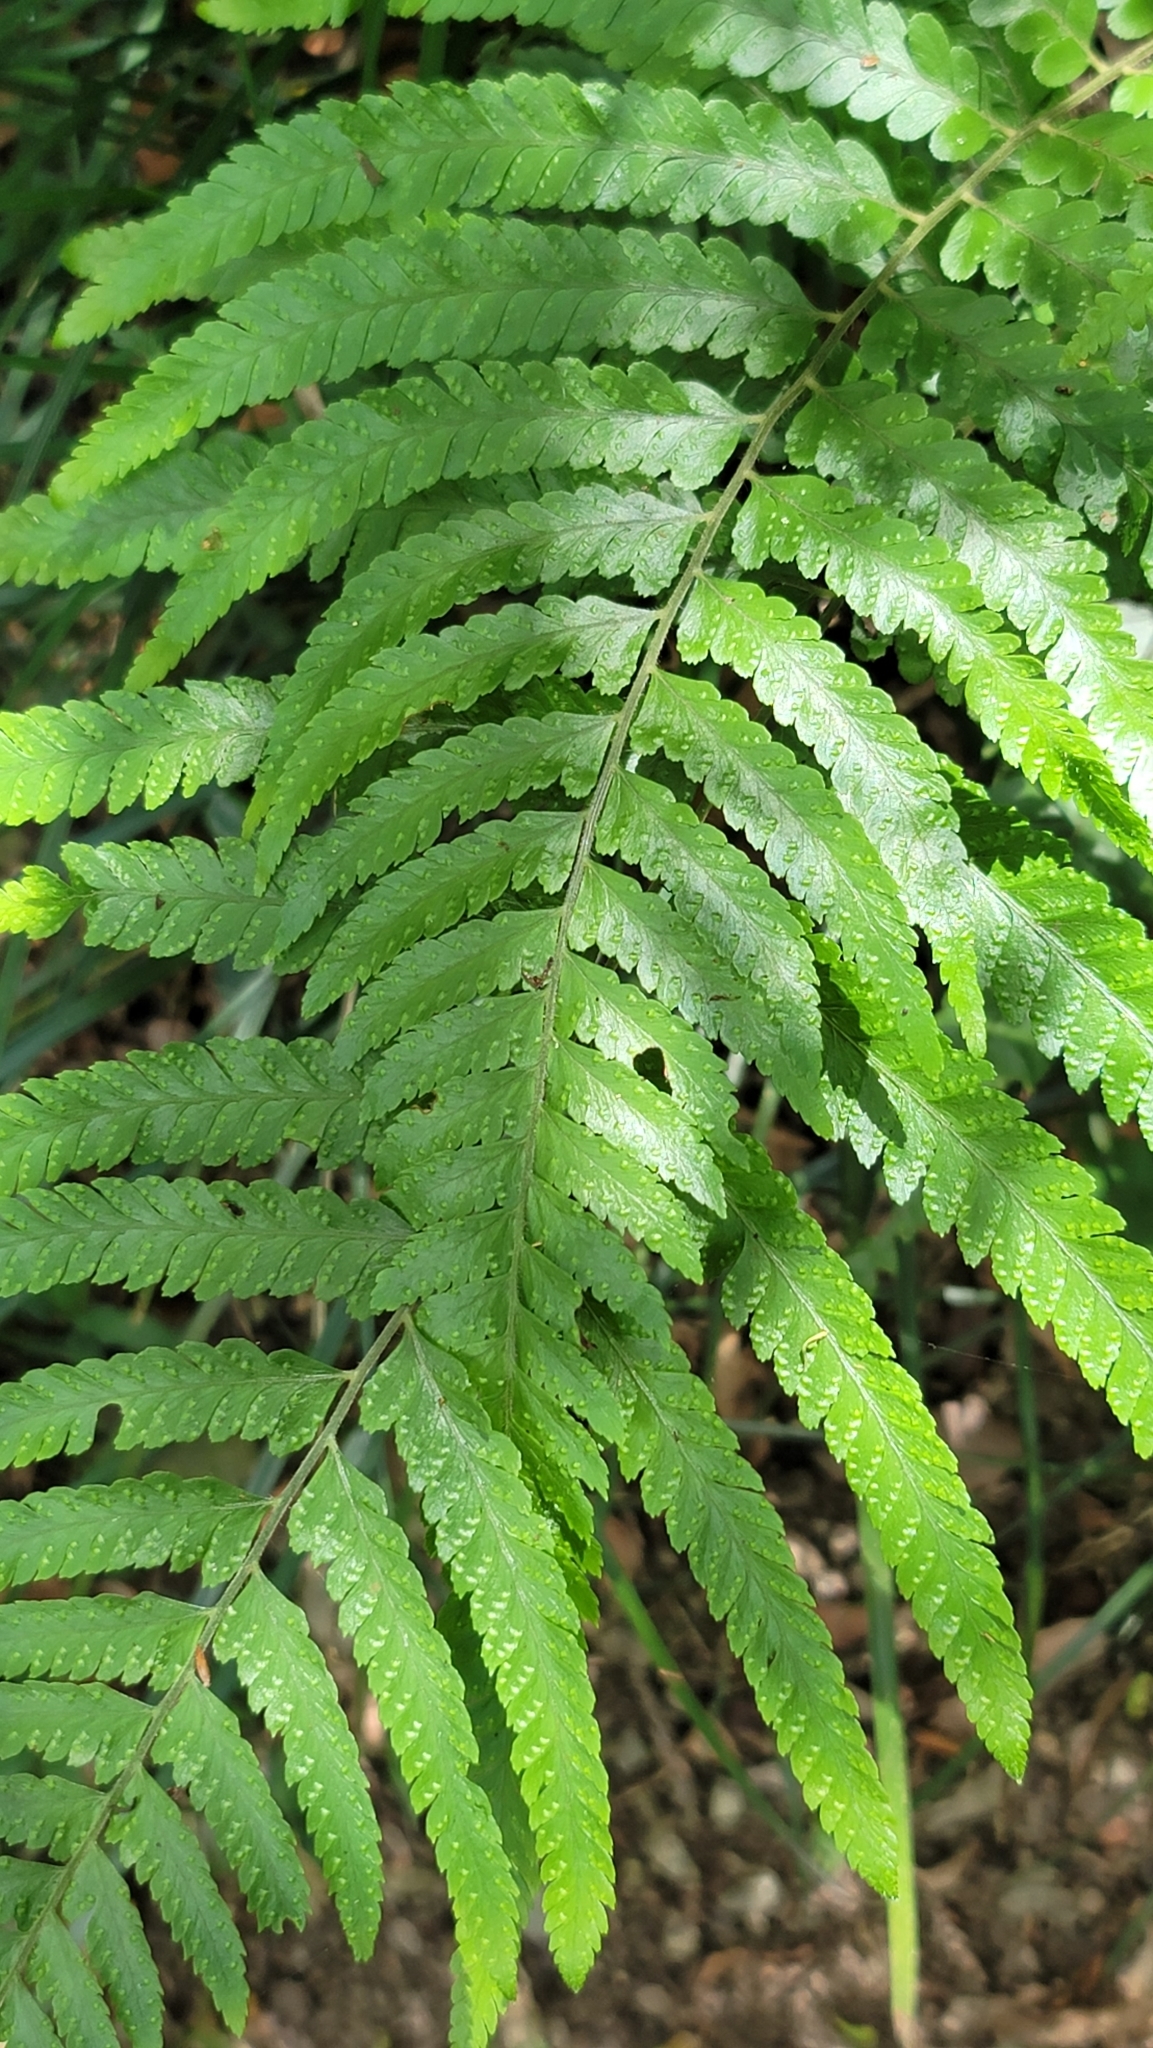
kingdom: Plantae
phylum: Tracheophyta
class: Polypodiopsida
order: Polypodiales
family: Dennstaedtiaceae
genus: Microlepia
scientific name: Microlepia calvescens
